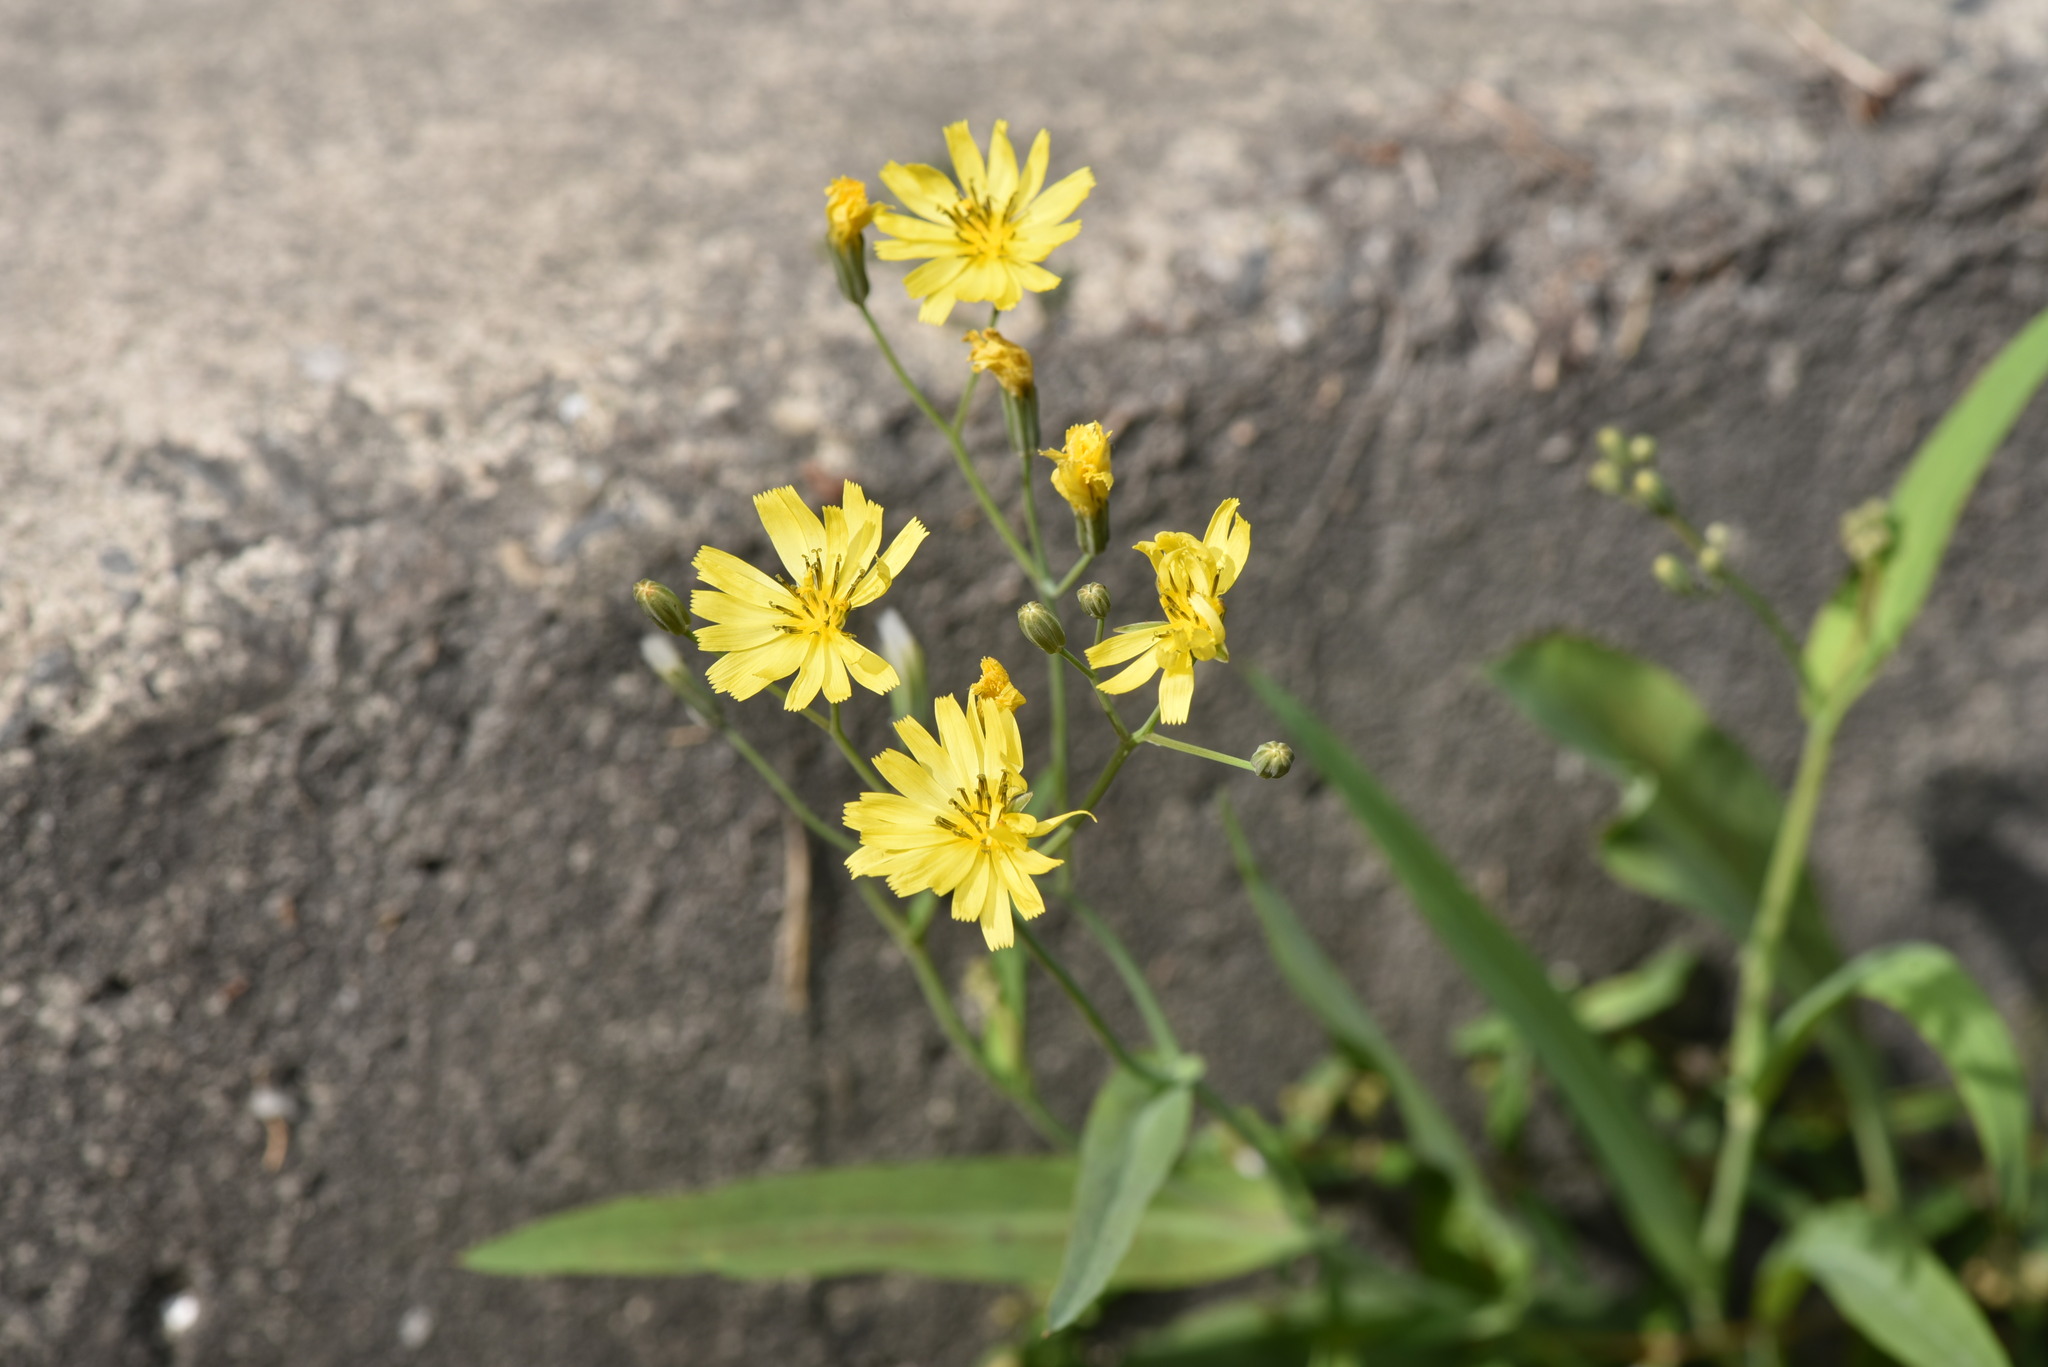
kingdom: Plantae
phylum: Tracheophyta
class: Magnoliopsida
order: Asterales
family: Asteraceae
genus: Ixeris
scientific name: Ixeris chinensis
